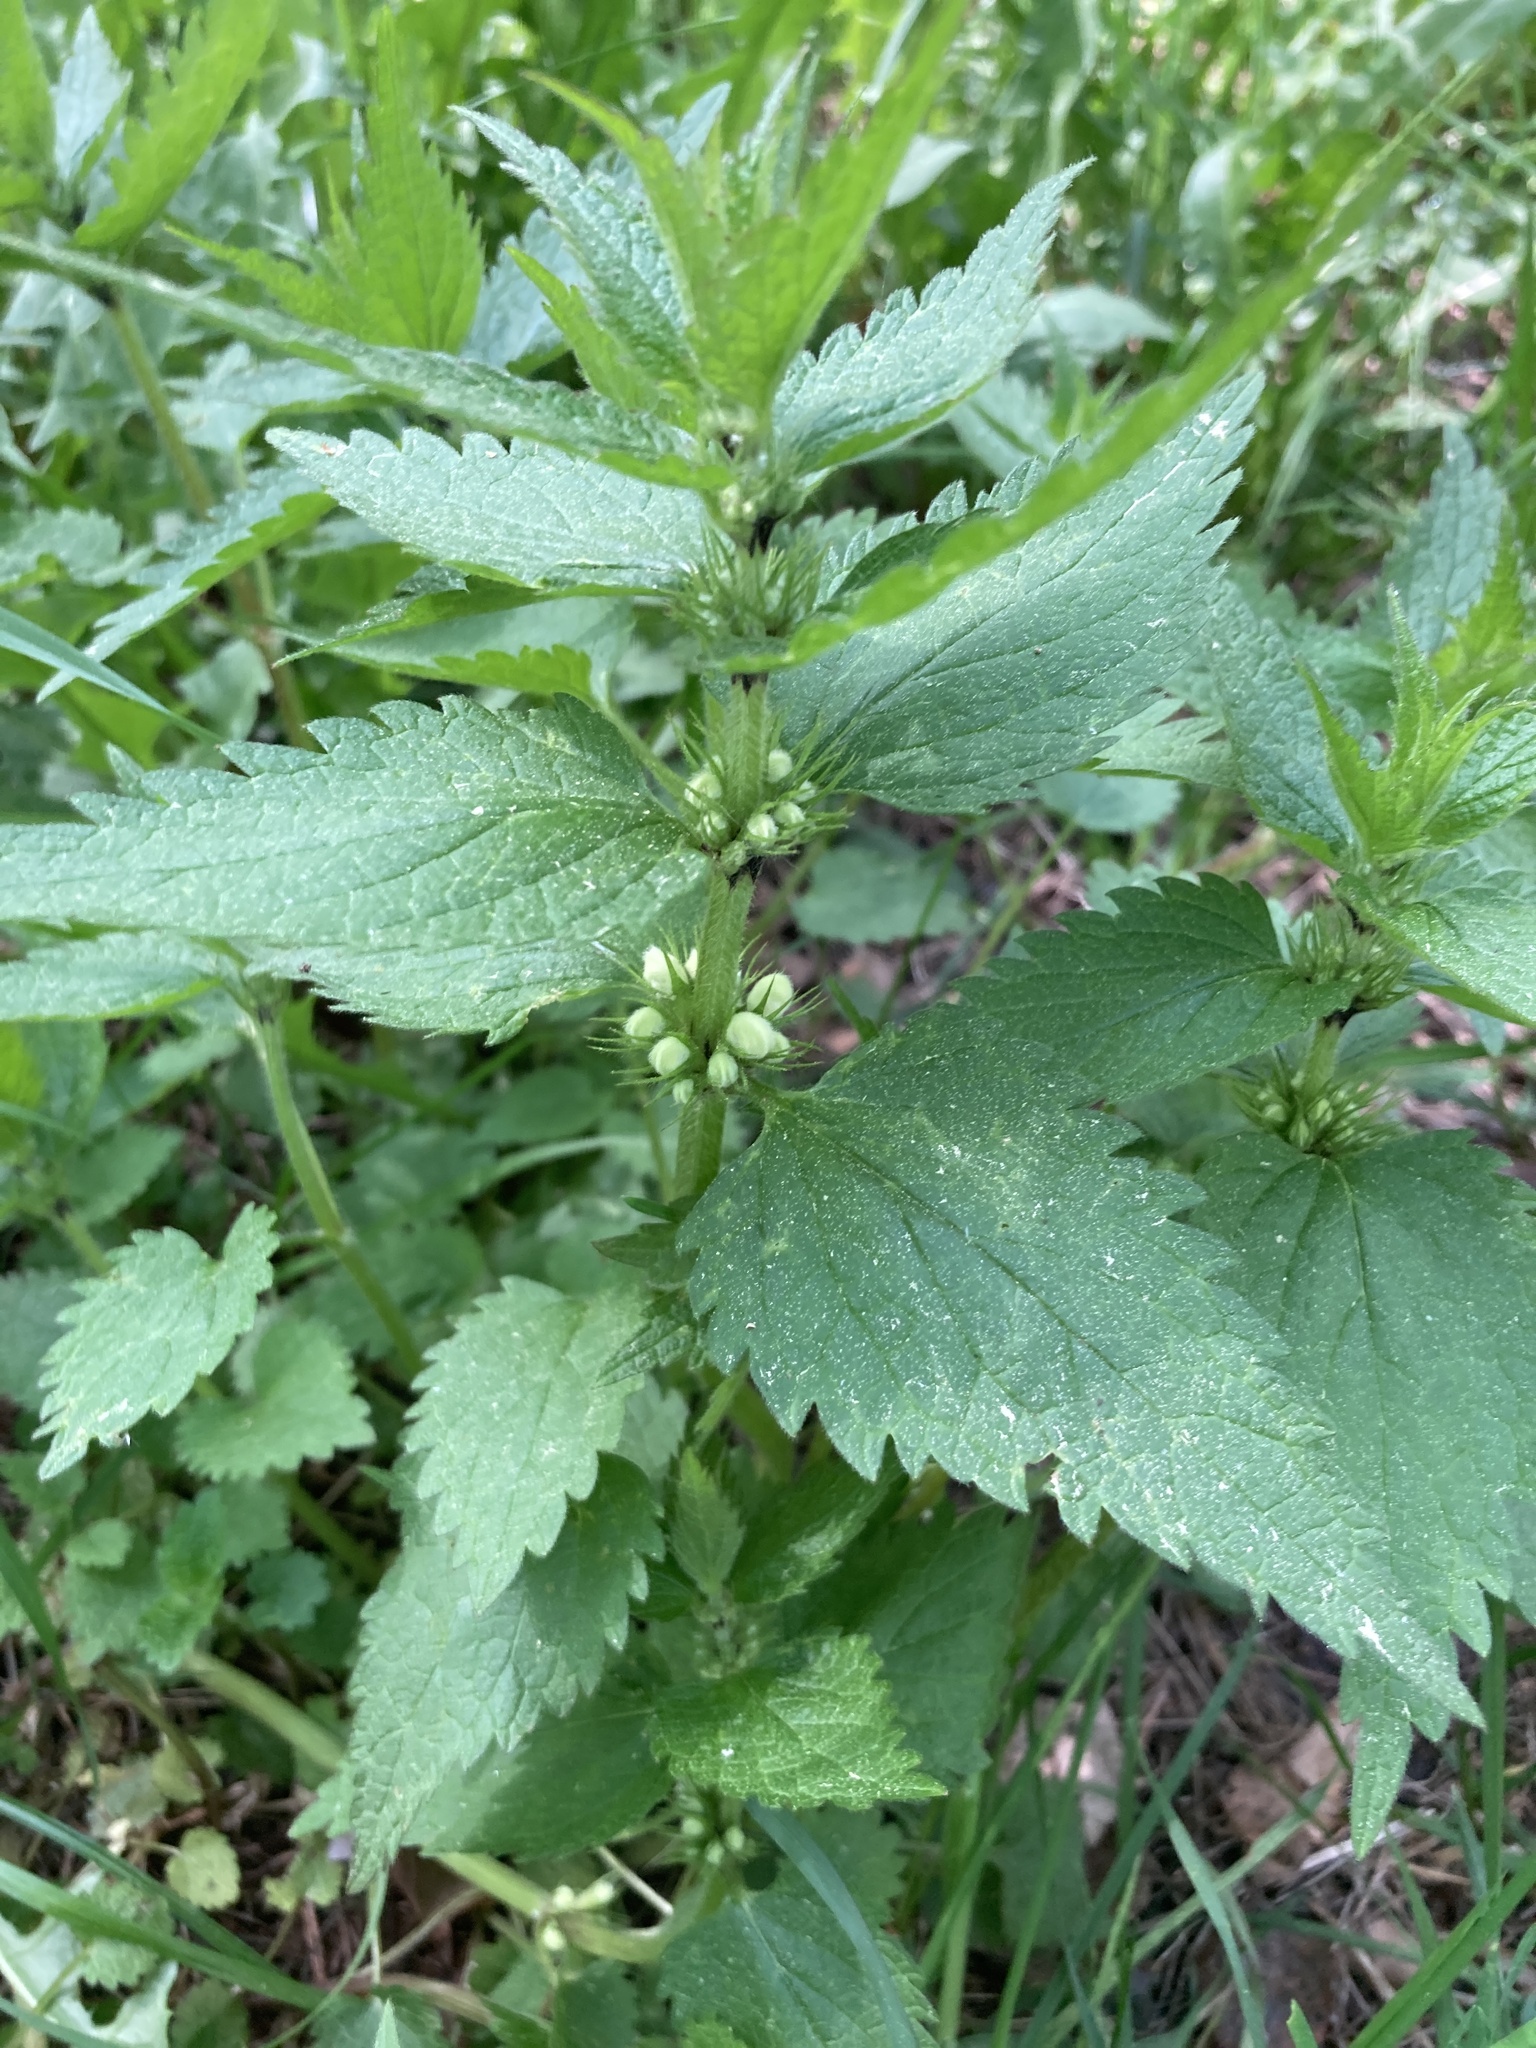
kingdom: Plantae
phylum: Tracheophyta
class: Magnoliopsida
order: Lamiales
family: Lamiaceae
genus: Lamium
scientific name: Lamium album
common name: White dead-nettle
